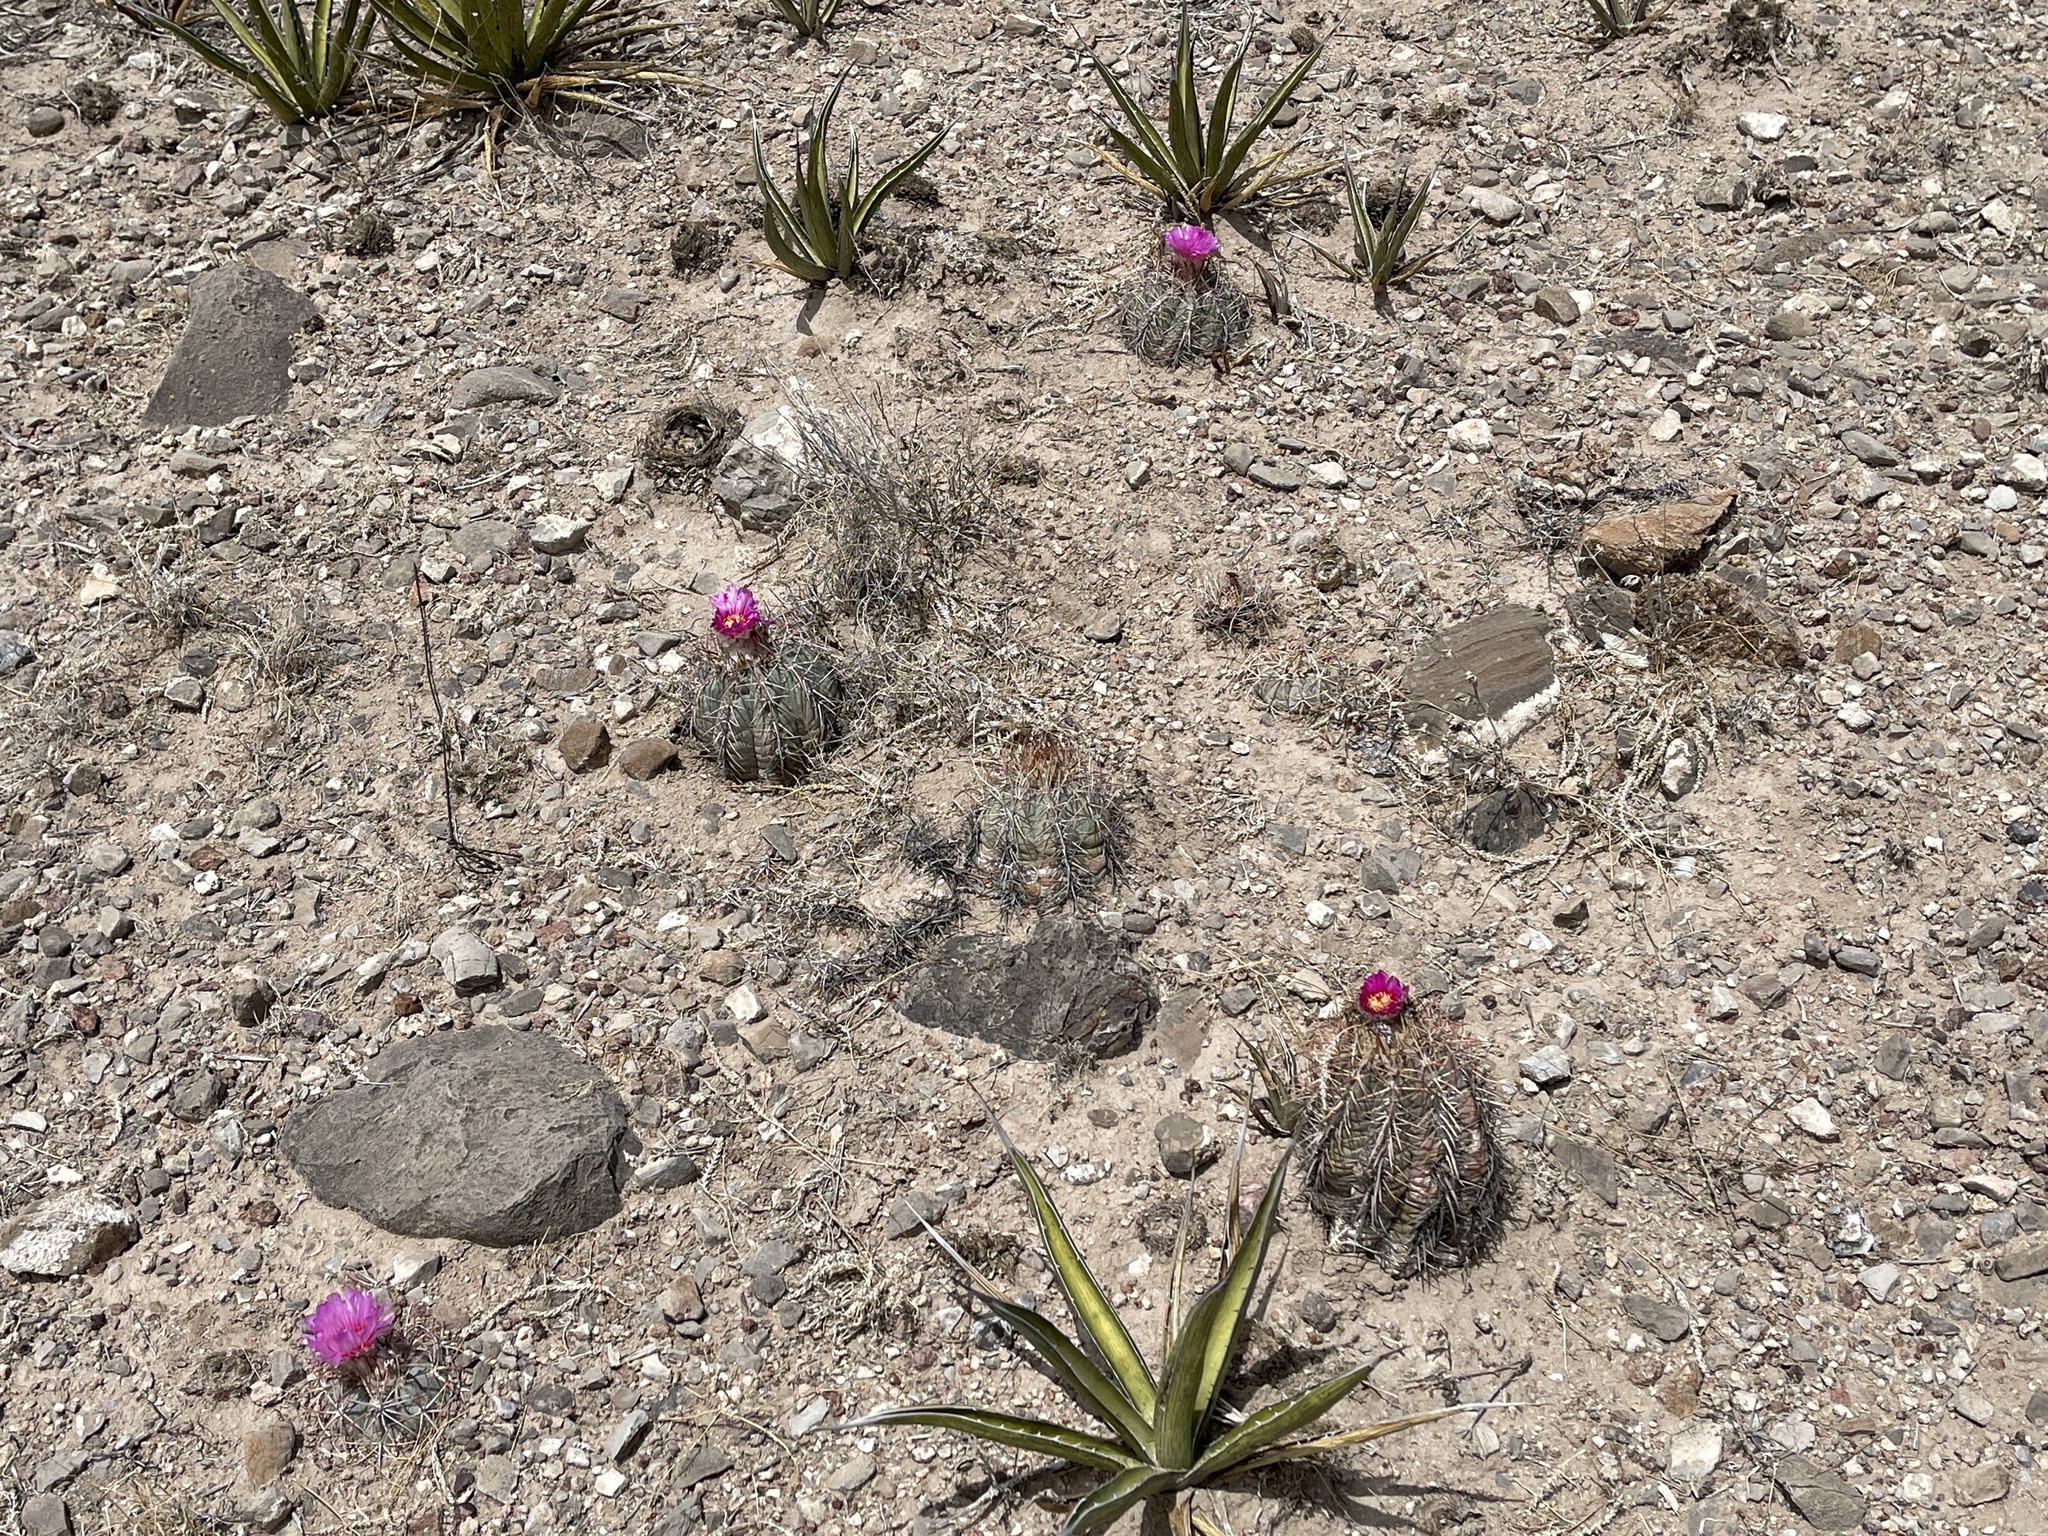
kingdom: Plantae
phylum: Tracheophyta
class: Magnoliopsida
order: Caryophyllales
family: Cactaceae
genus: Echinocactus
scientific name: Echinocactus horizonthalonius
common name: Devilshead
